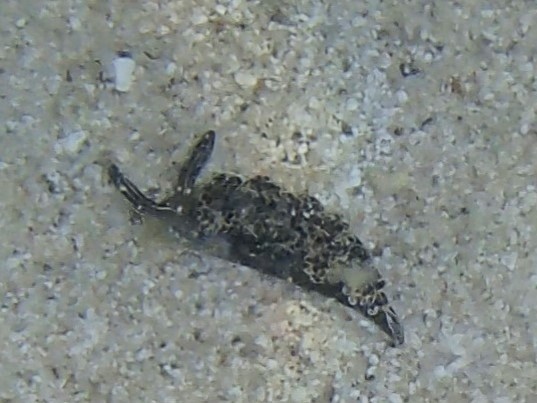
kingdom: Animalia
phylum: Mollusca
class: Gastropoda
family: Plakobranchidae
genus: Elysia
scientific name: Elysia diomedea
